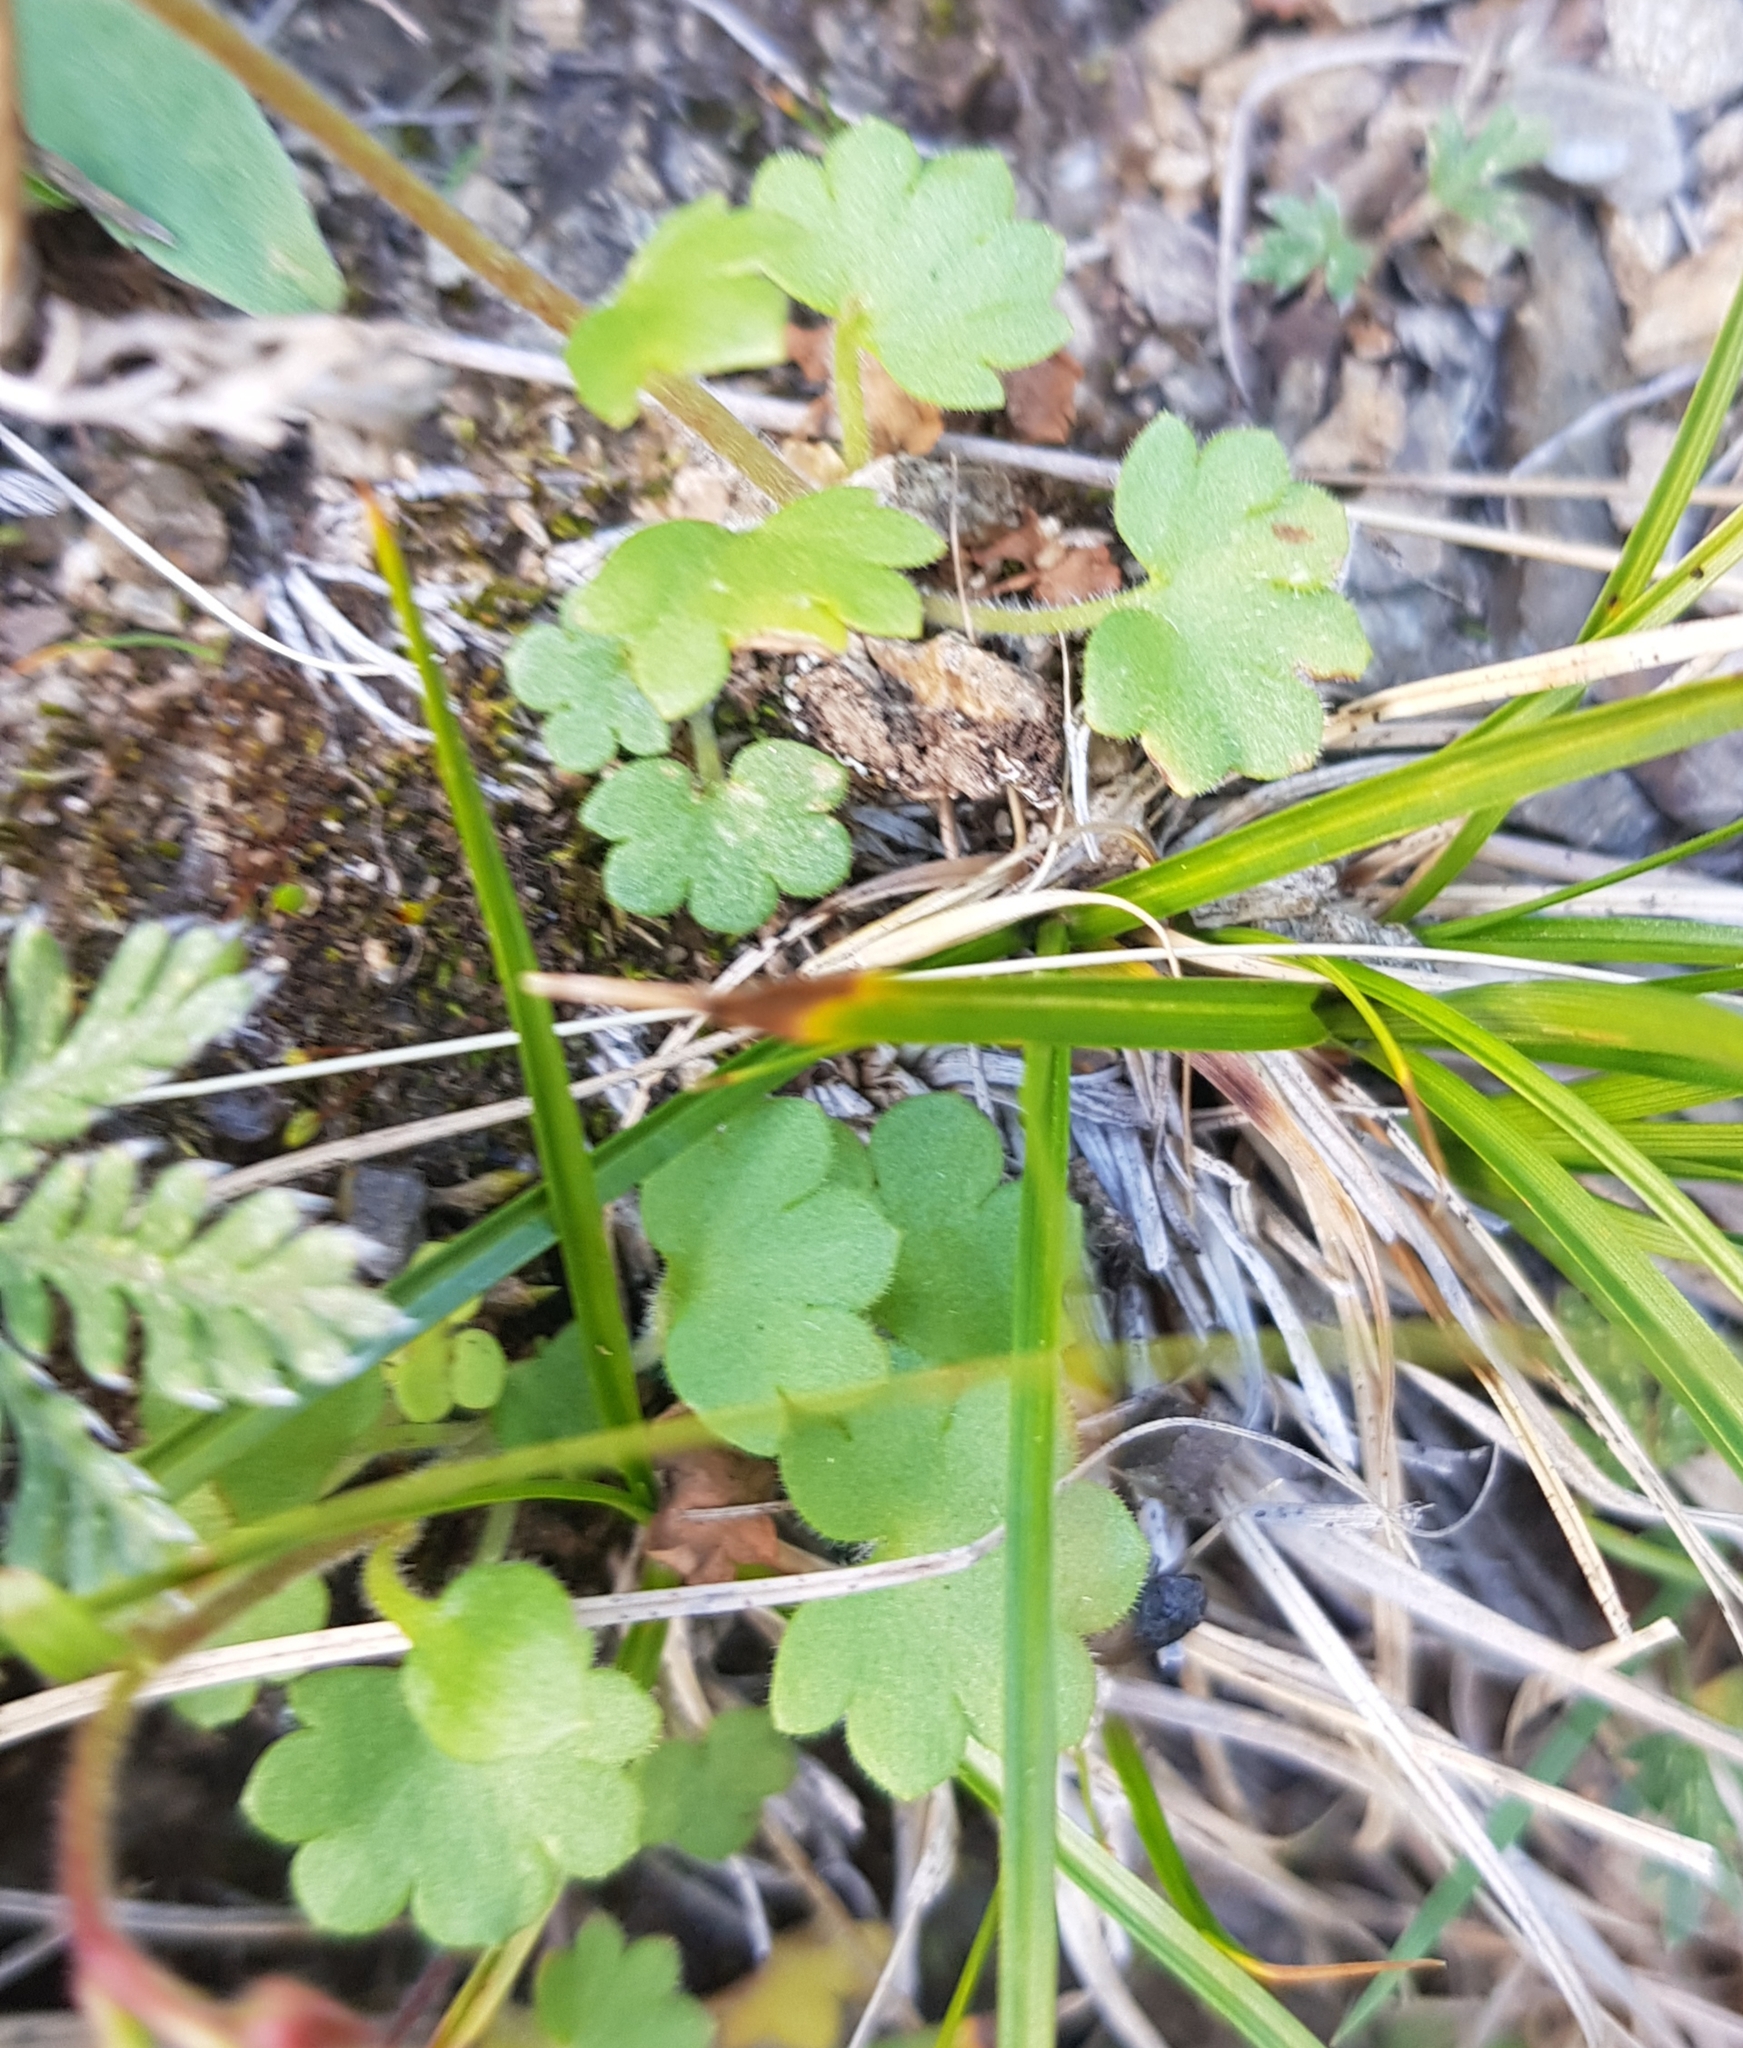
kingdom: Plantae
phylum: Tracheophyta
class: Magnoliopsida
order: Ranunculales
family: Ranunculaceae
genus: Halerpestes
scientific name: Halerpestes sarmentosus
